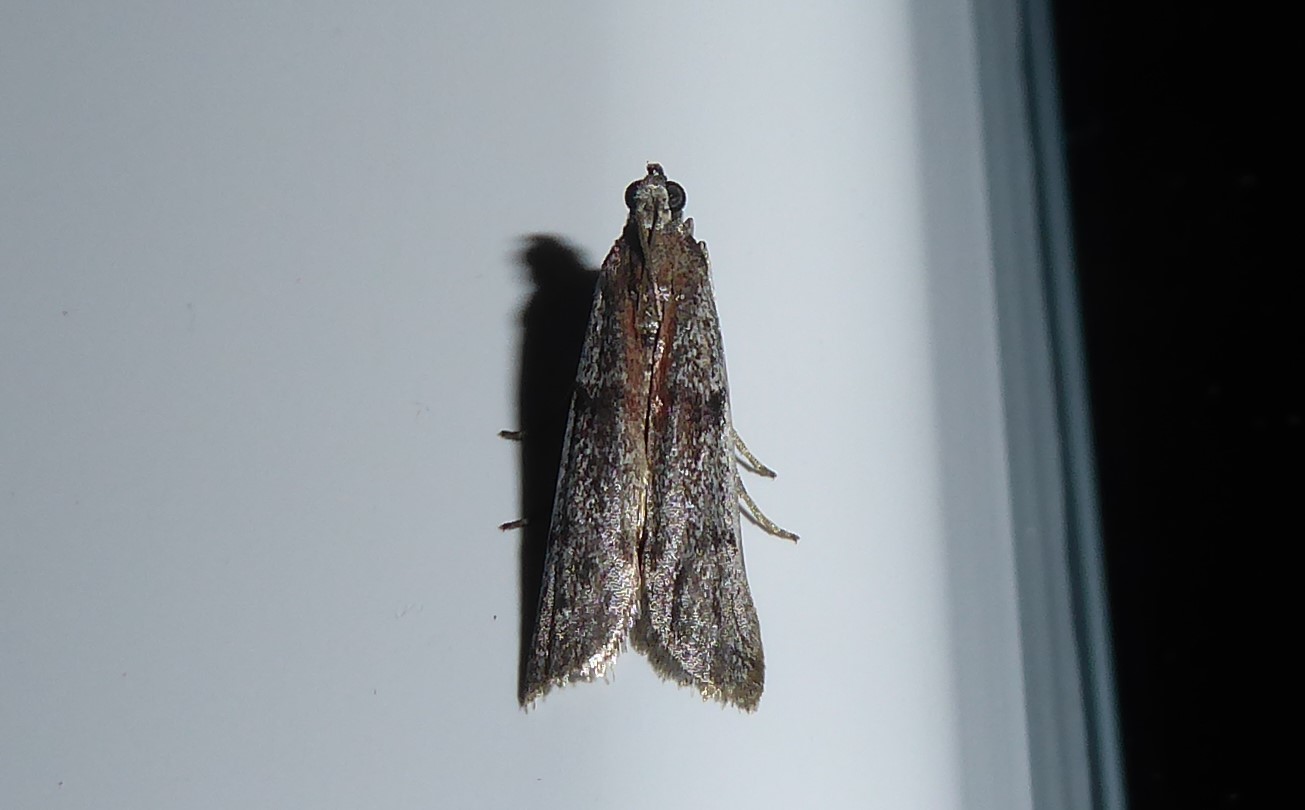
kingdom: Animalia
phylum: Arthropoda
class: Insecta
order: Lepidoptera
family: Pyralidae
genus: Patagoniodes
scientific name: Patagoniodes farinaria
